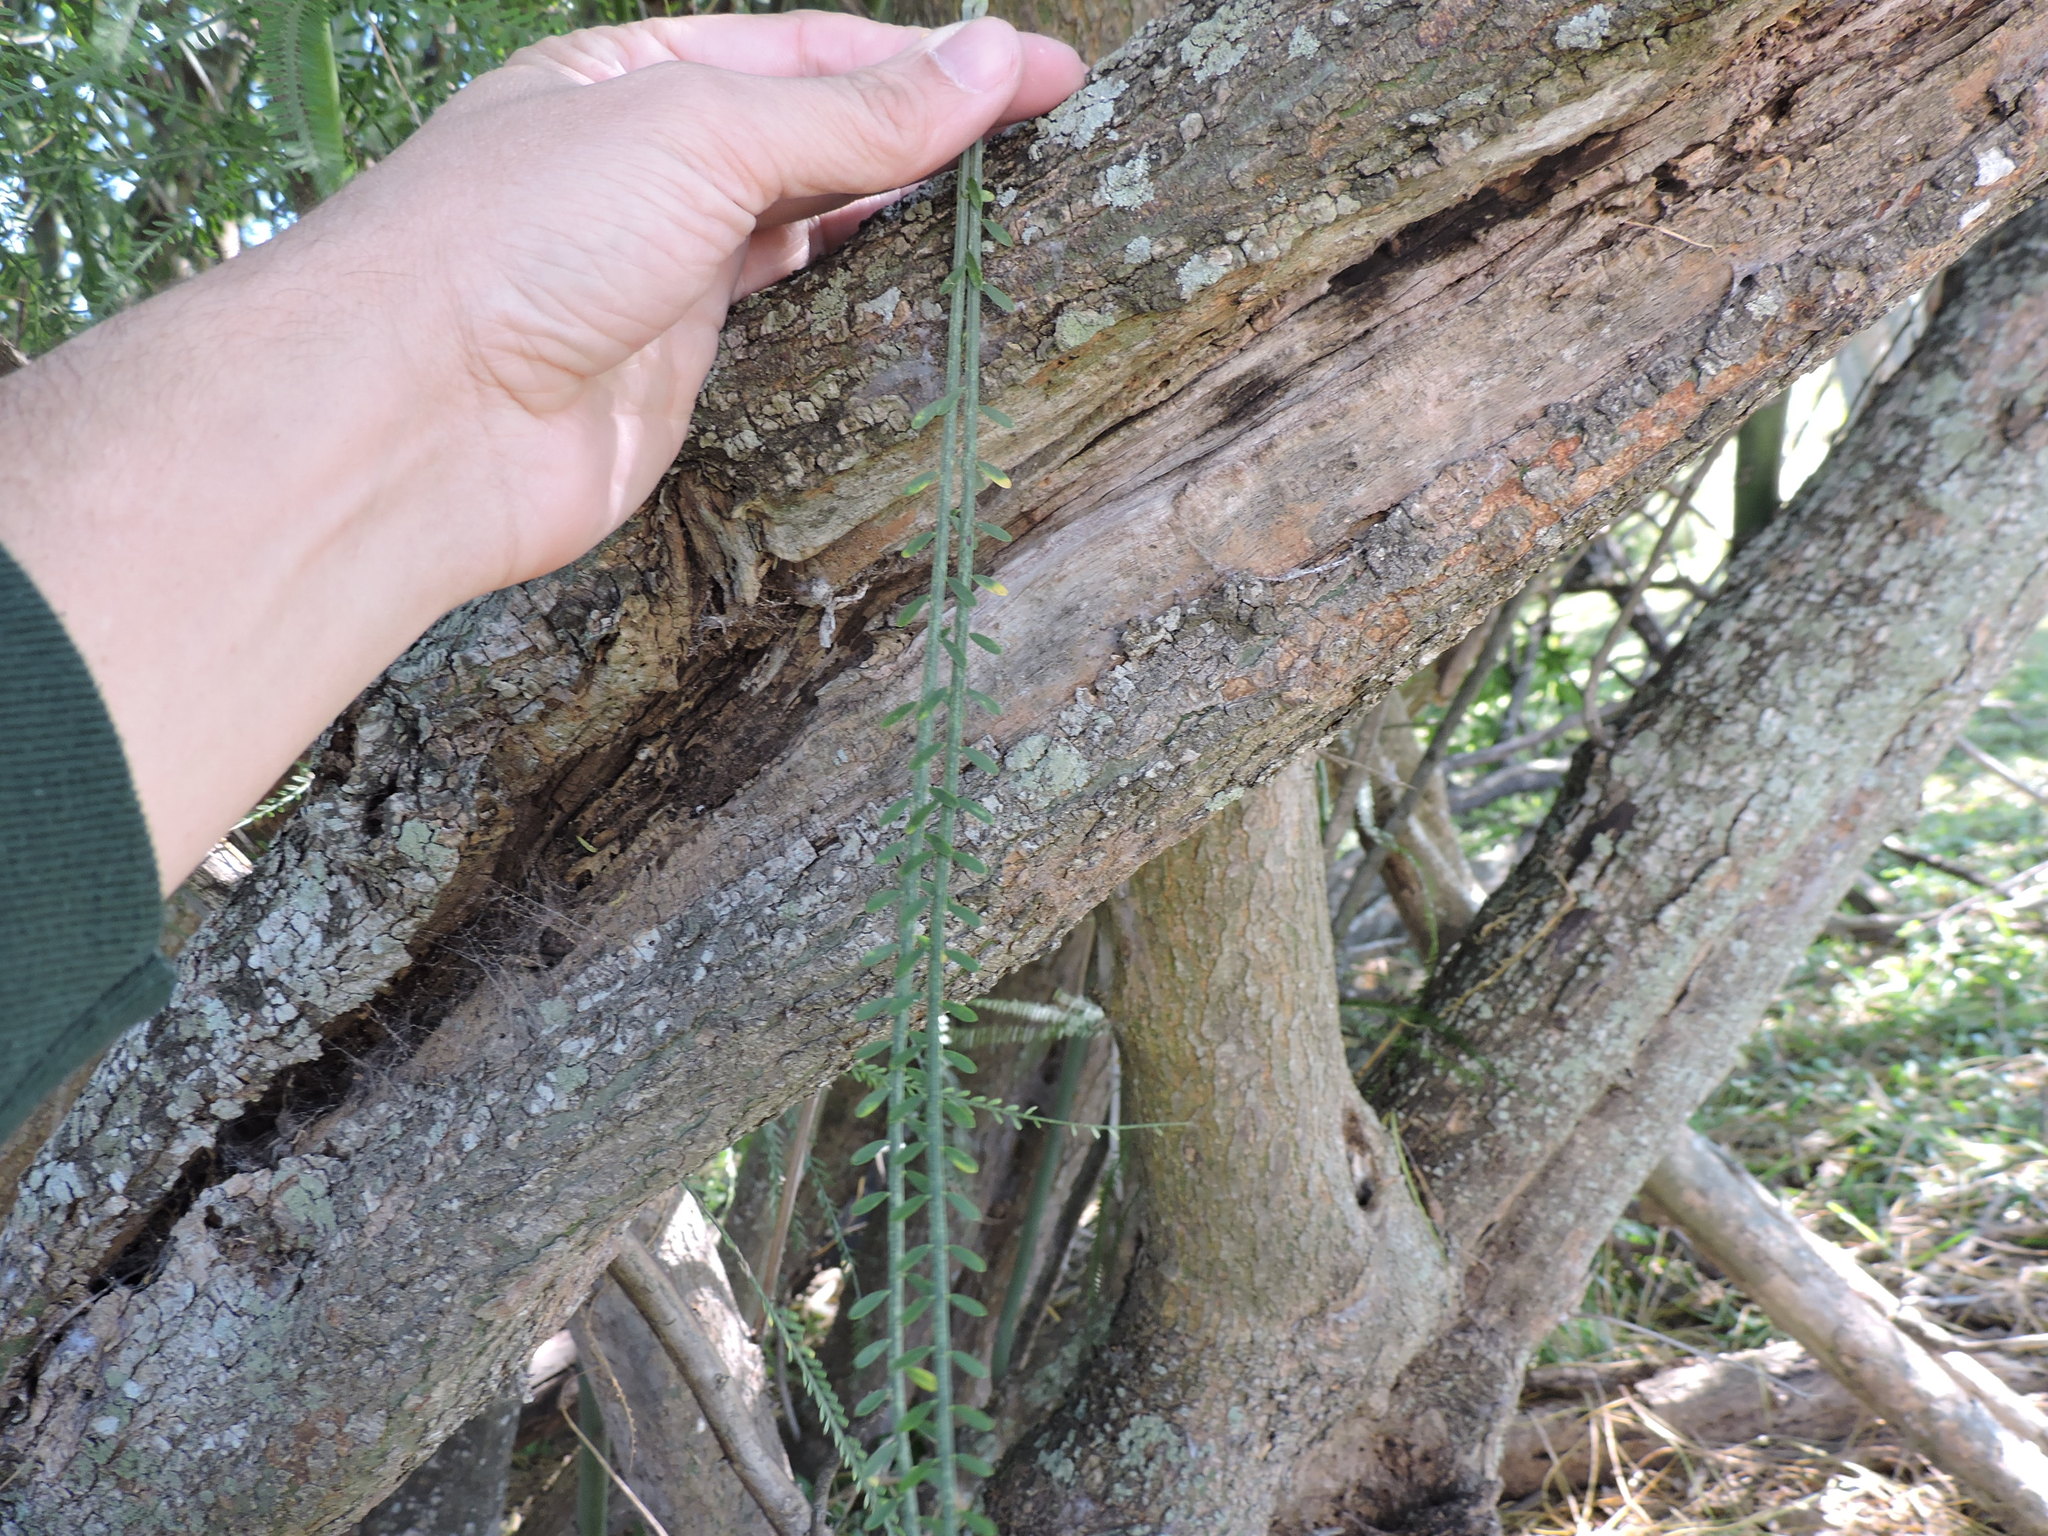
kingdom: Plantae
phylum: Tracheophyta
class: Magnoliopsida
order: Fabales
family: Fabaceae
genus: Parkinsonia
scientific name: Parkinsonia aculeata
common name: Jerusalem thorn
